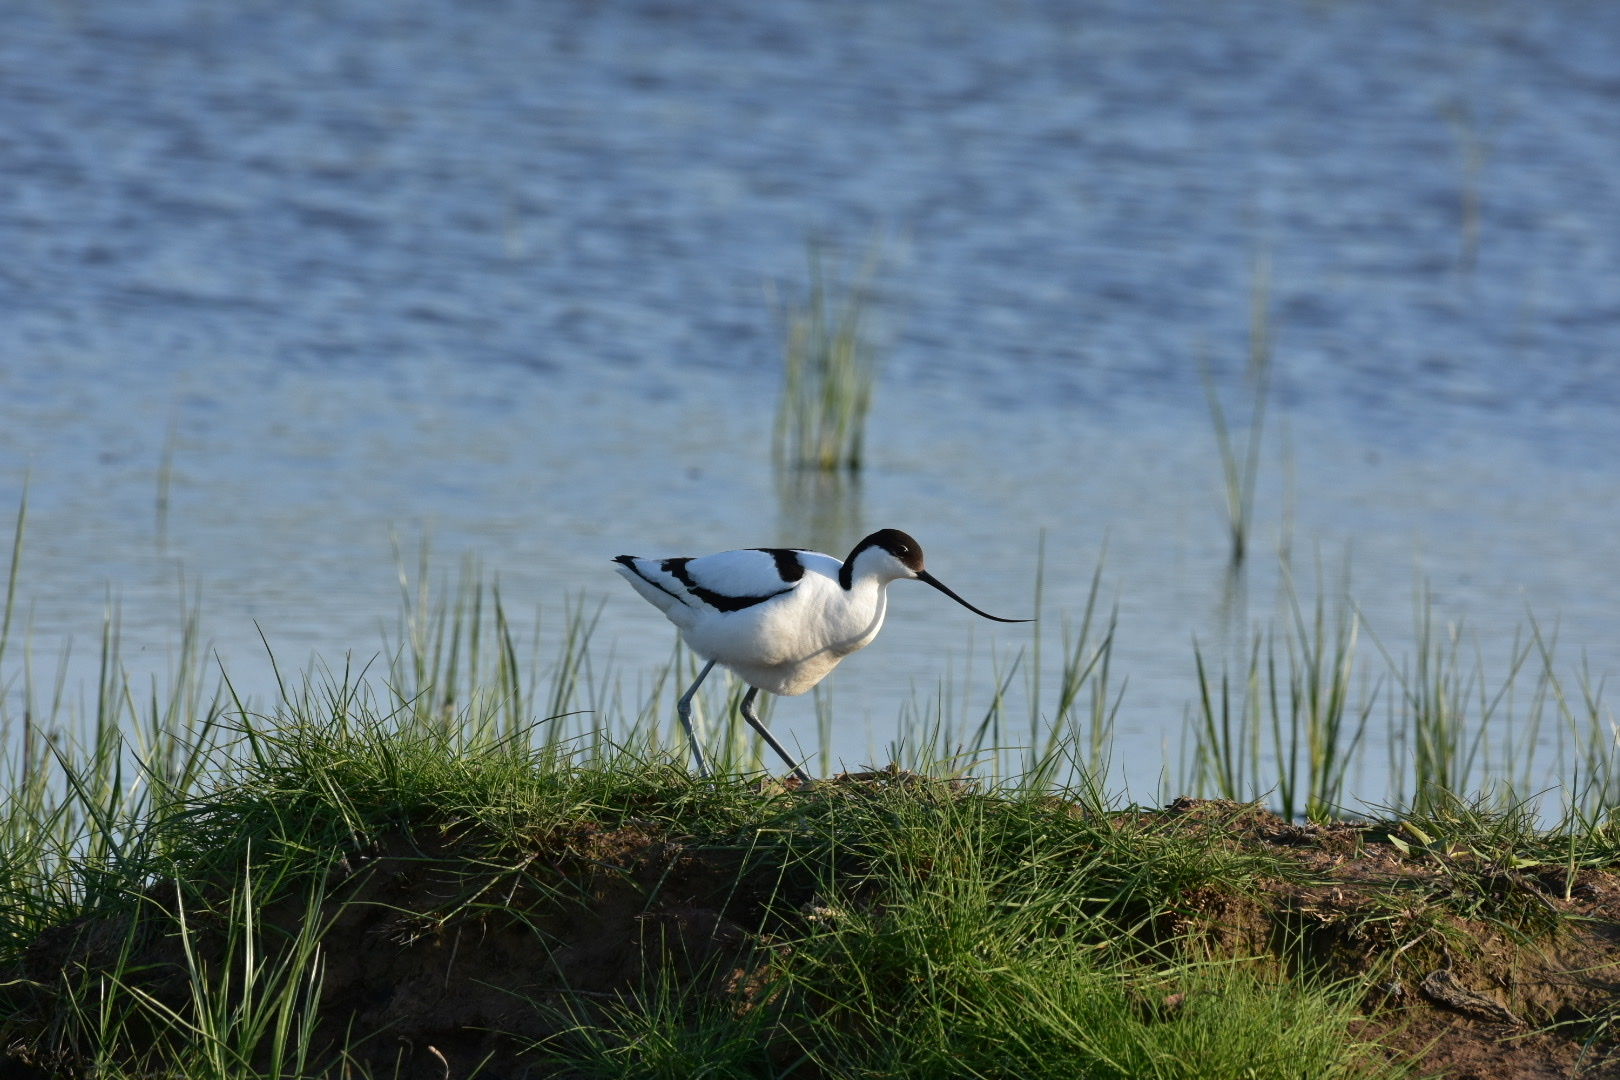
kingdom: Animalia
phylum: Chordata
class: Aves
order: Charadriiformes
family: Recurvirostridae
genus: Recurvirostra
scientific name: Recurvirostra avosetta
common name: Pied avocet
